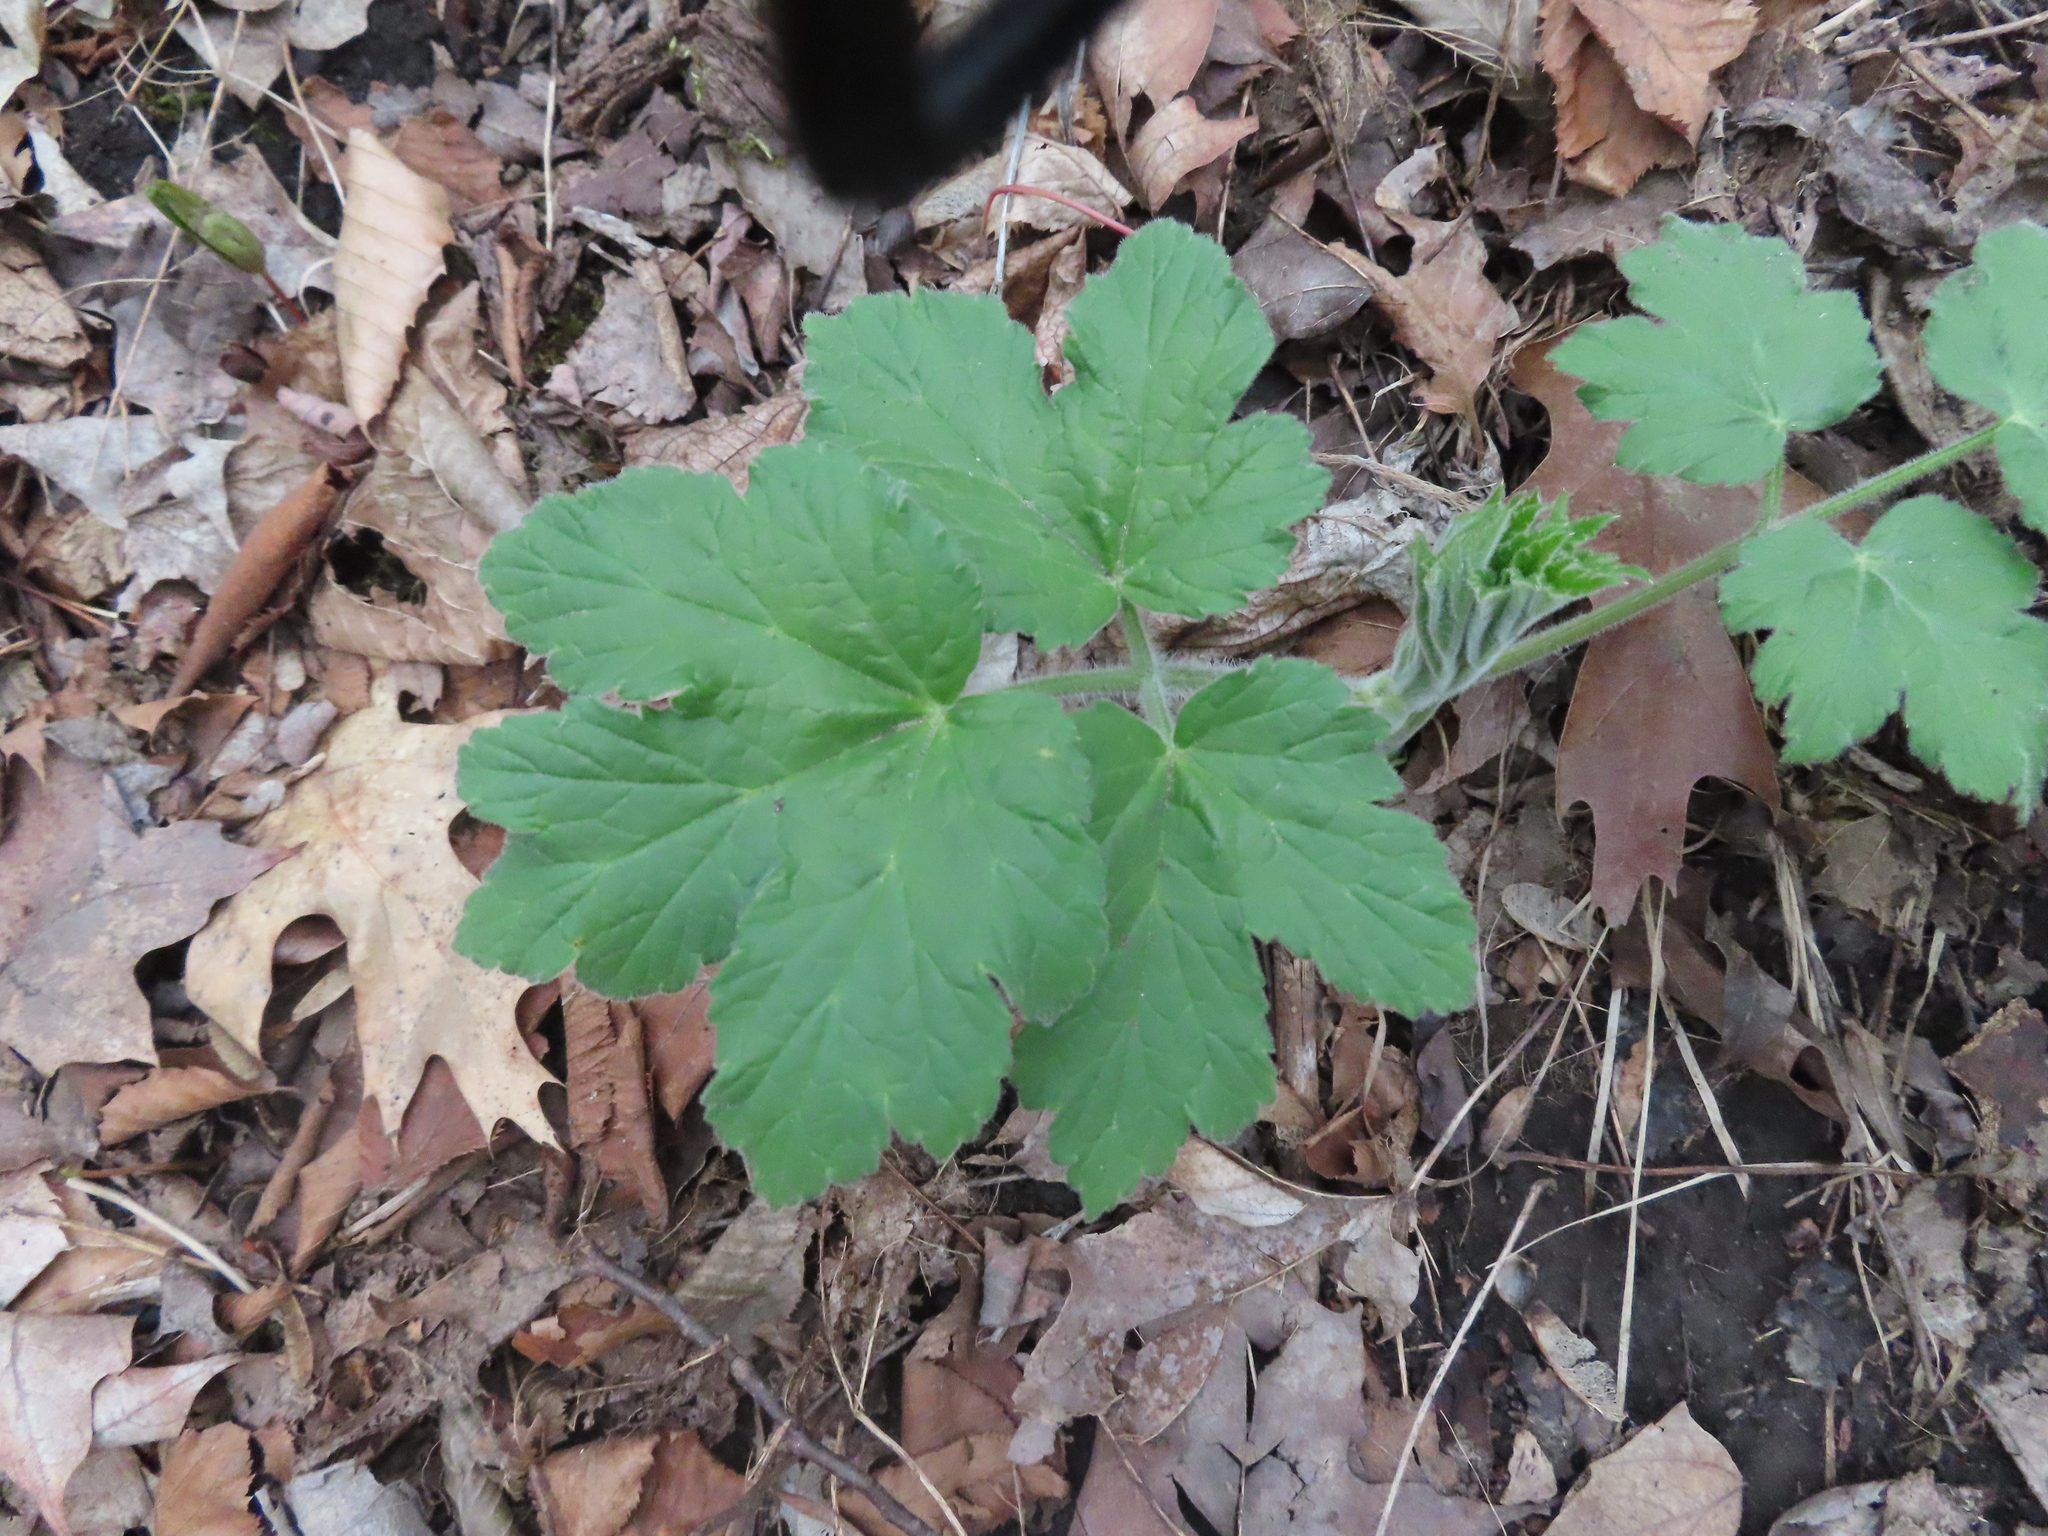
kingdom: Plantae
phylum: Tracheophyta
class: Magnoliopsida
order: Apiales
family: Apiaceae
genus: Heracleum
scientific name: Heracleum maximum
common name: American cow parsnip
